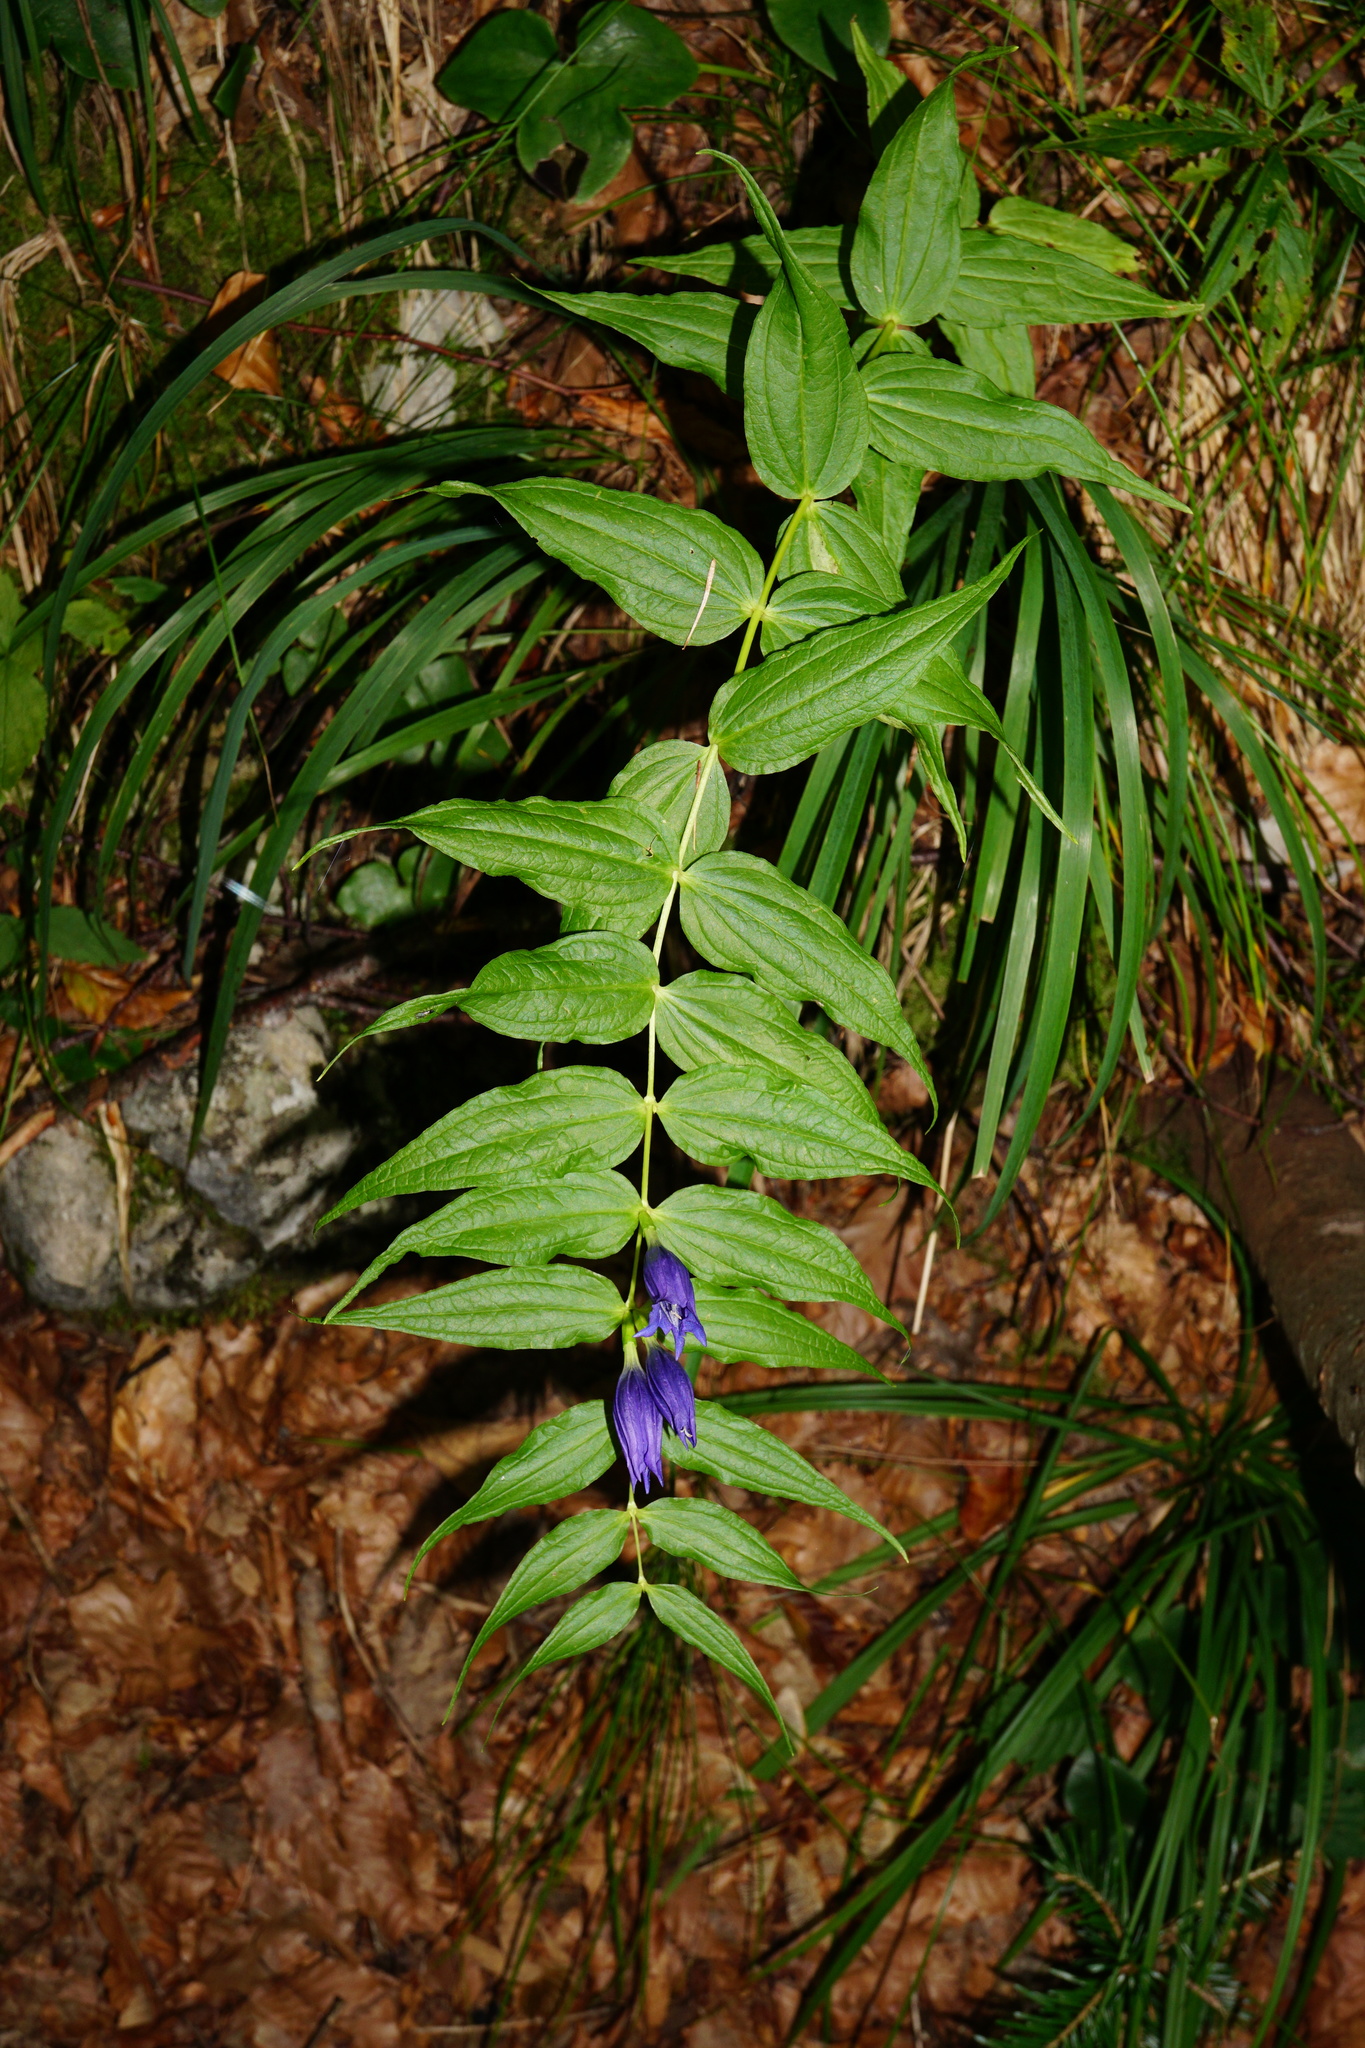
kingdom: Plantae
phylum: Tracheophyta
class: Magnoliopsida
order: Gentianales
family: Gentianaceae
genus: Gentiana
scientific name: Gentiana asclepiadea
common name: Willow gentian
